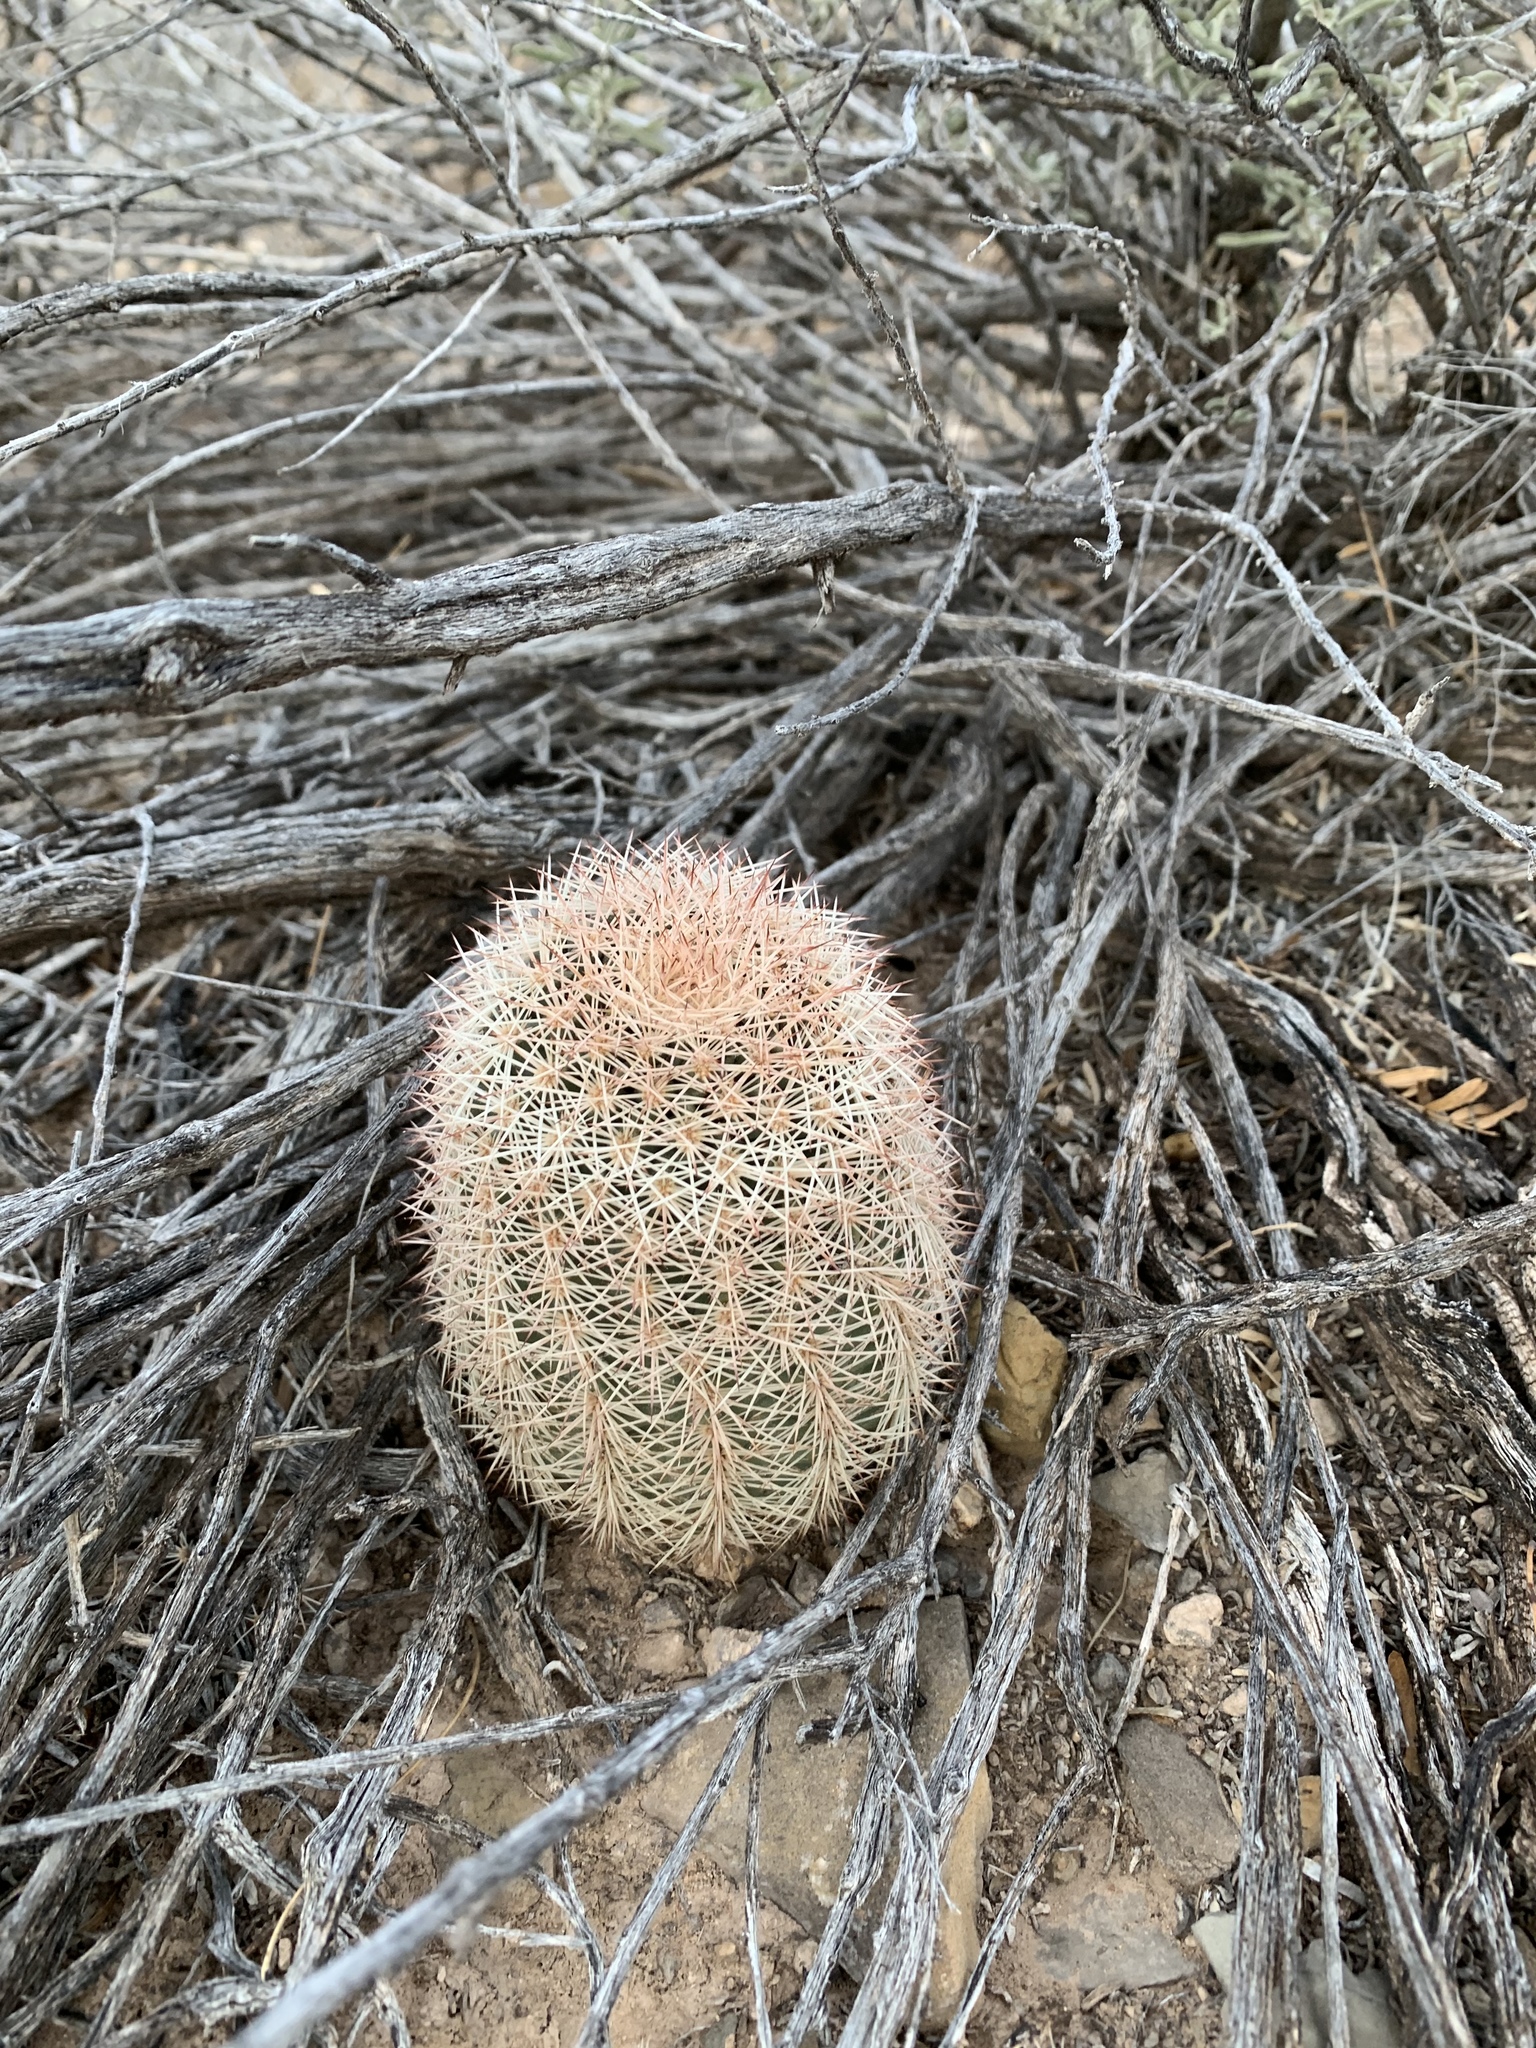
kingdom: Plantae
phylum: Tracheophyta
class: Magnoliopsida
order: Caryophyllales
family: Cactaceae
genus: Echinocereus
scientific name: Echinocereus dasyacanthus
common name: Spiny hedgehog cactus
